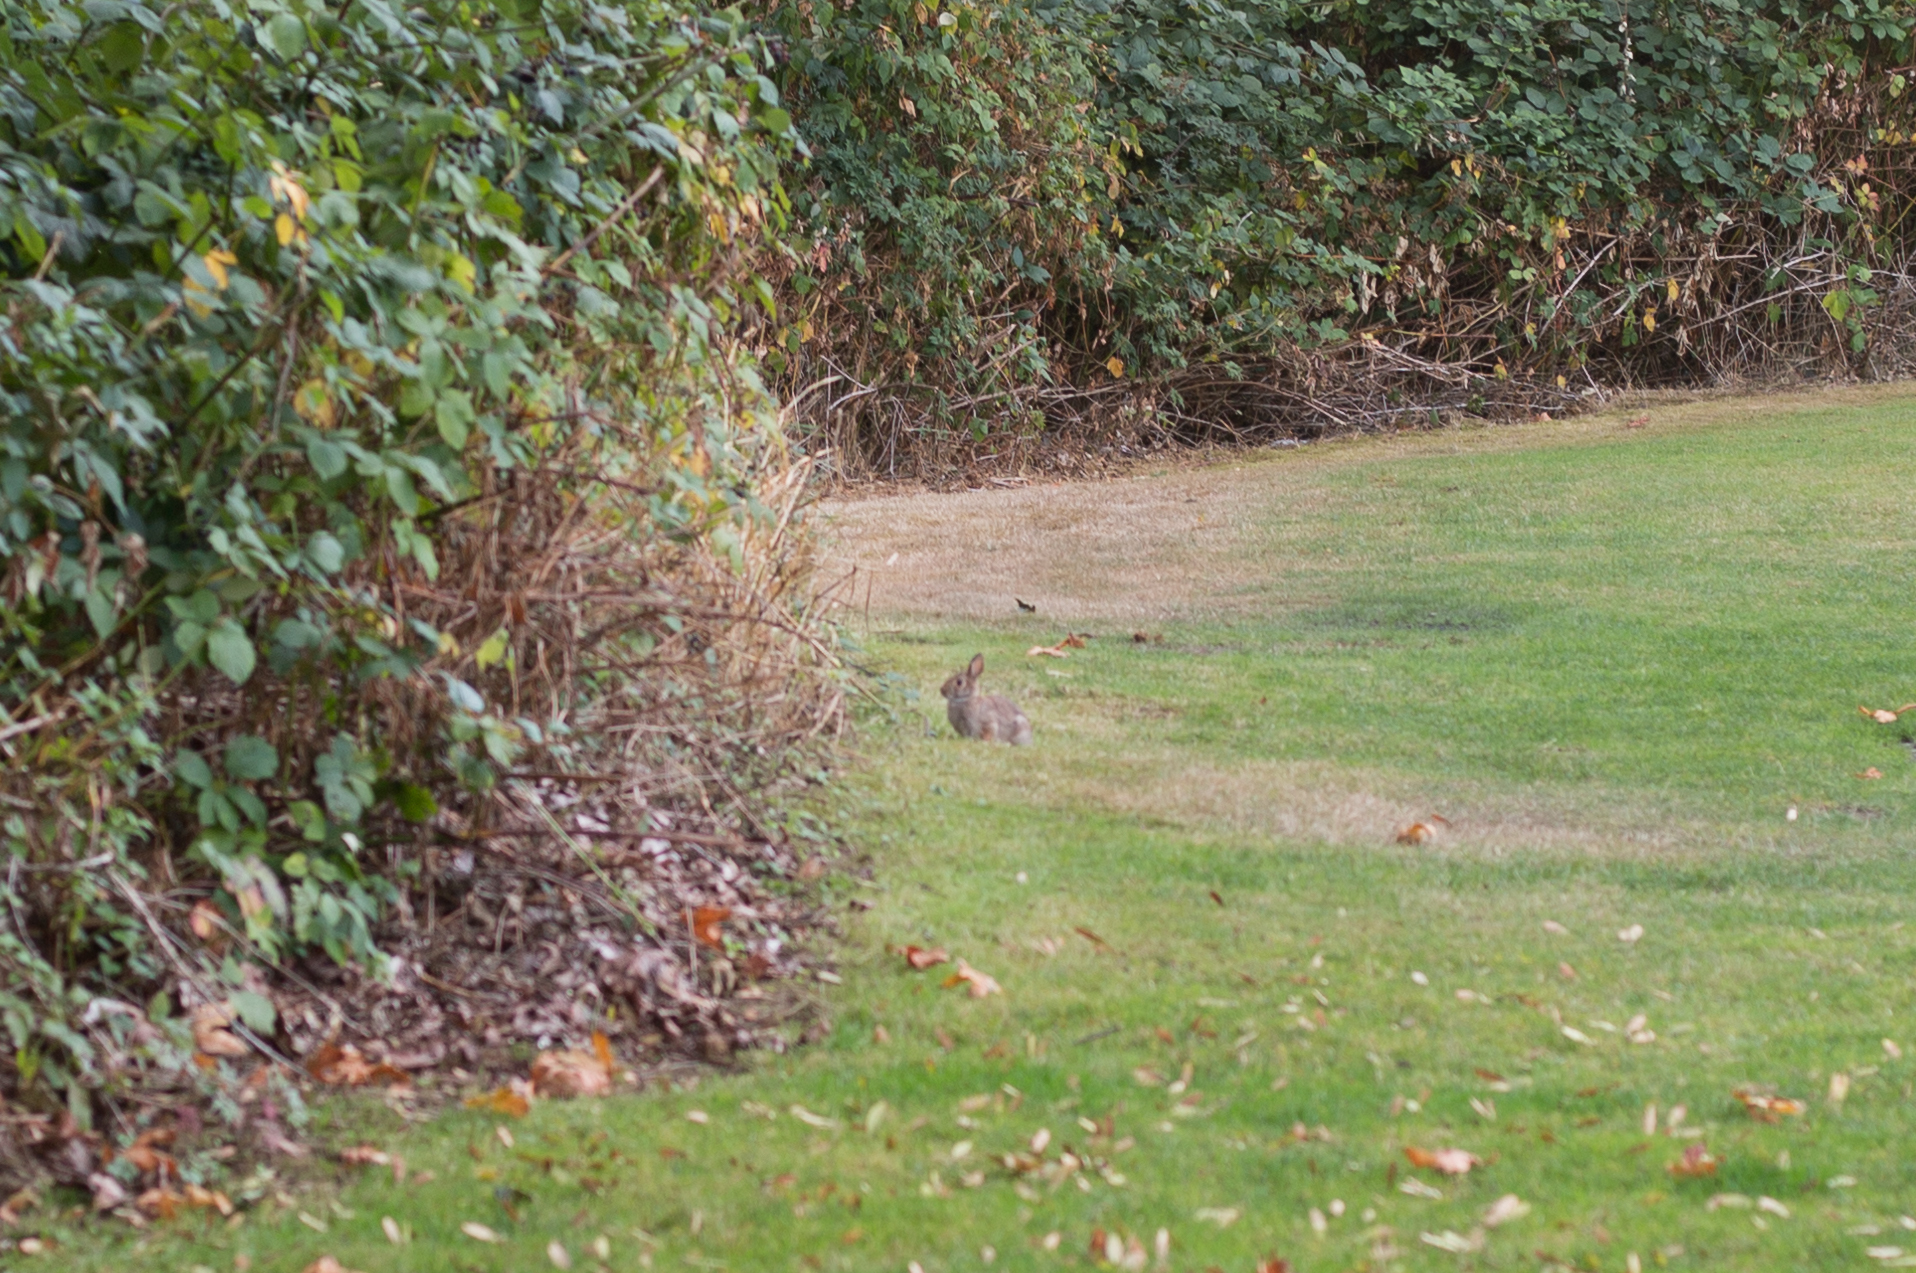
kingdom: Animalia
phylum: Chordata
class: Mammalia
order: Lagomorpha
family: Leporidae
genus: Sylvilagus
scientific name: Sylvilagus floridanus
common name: Eastern cottontail
